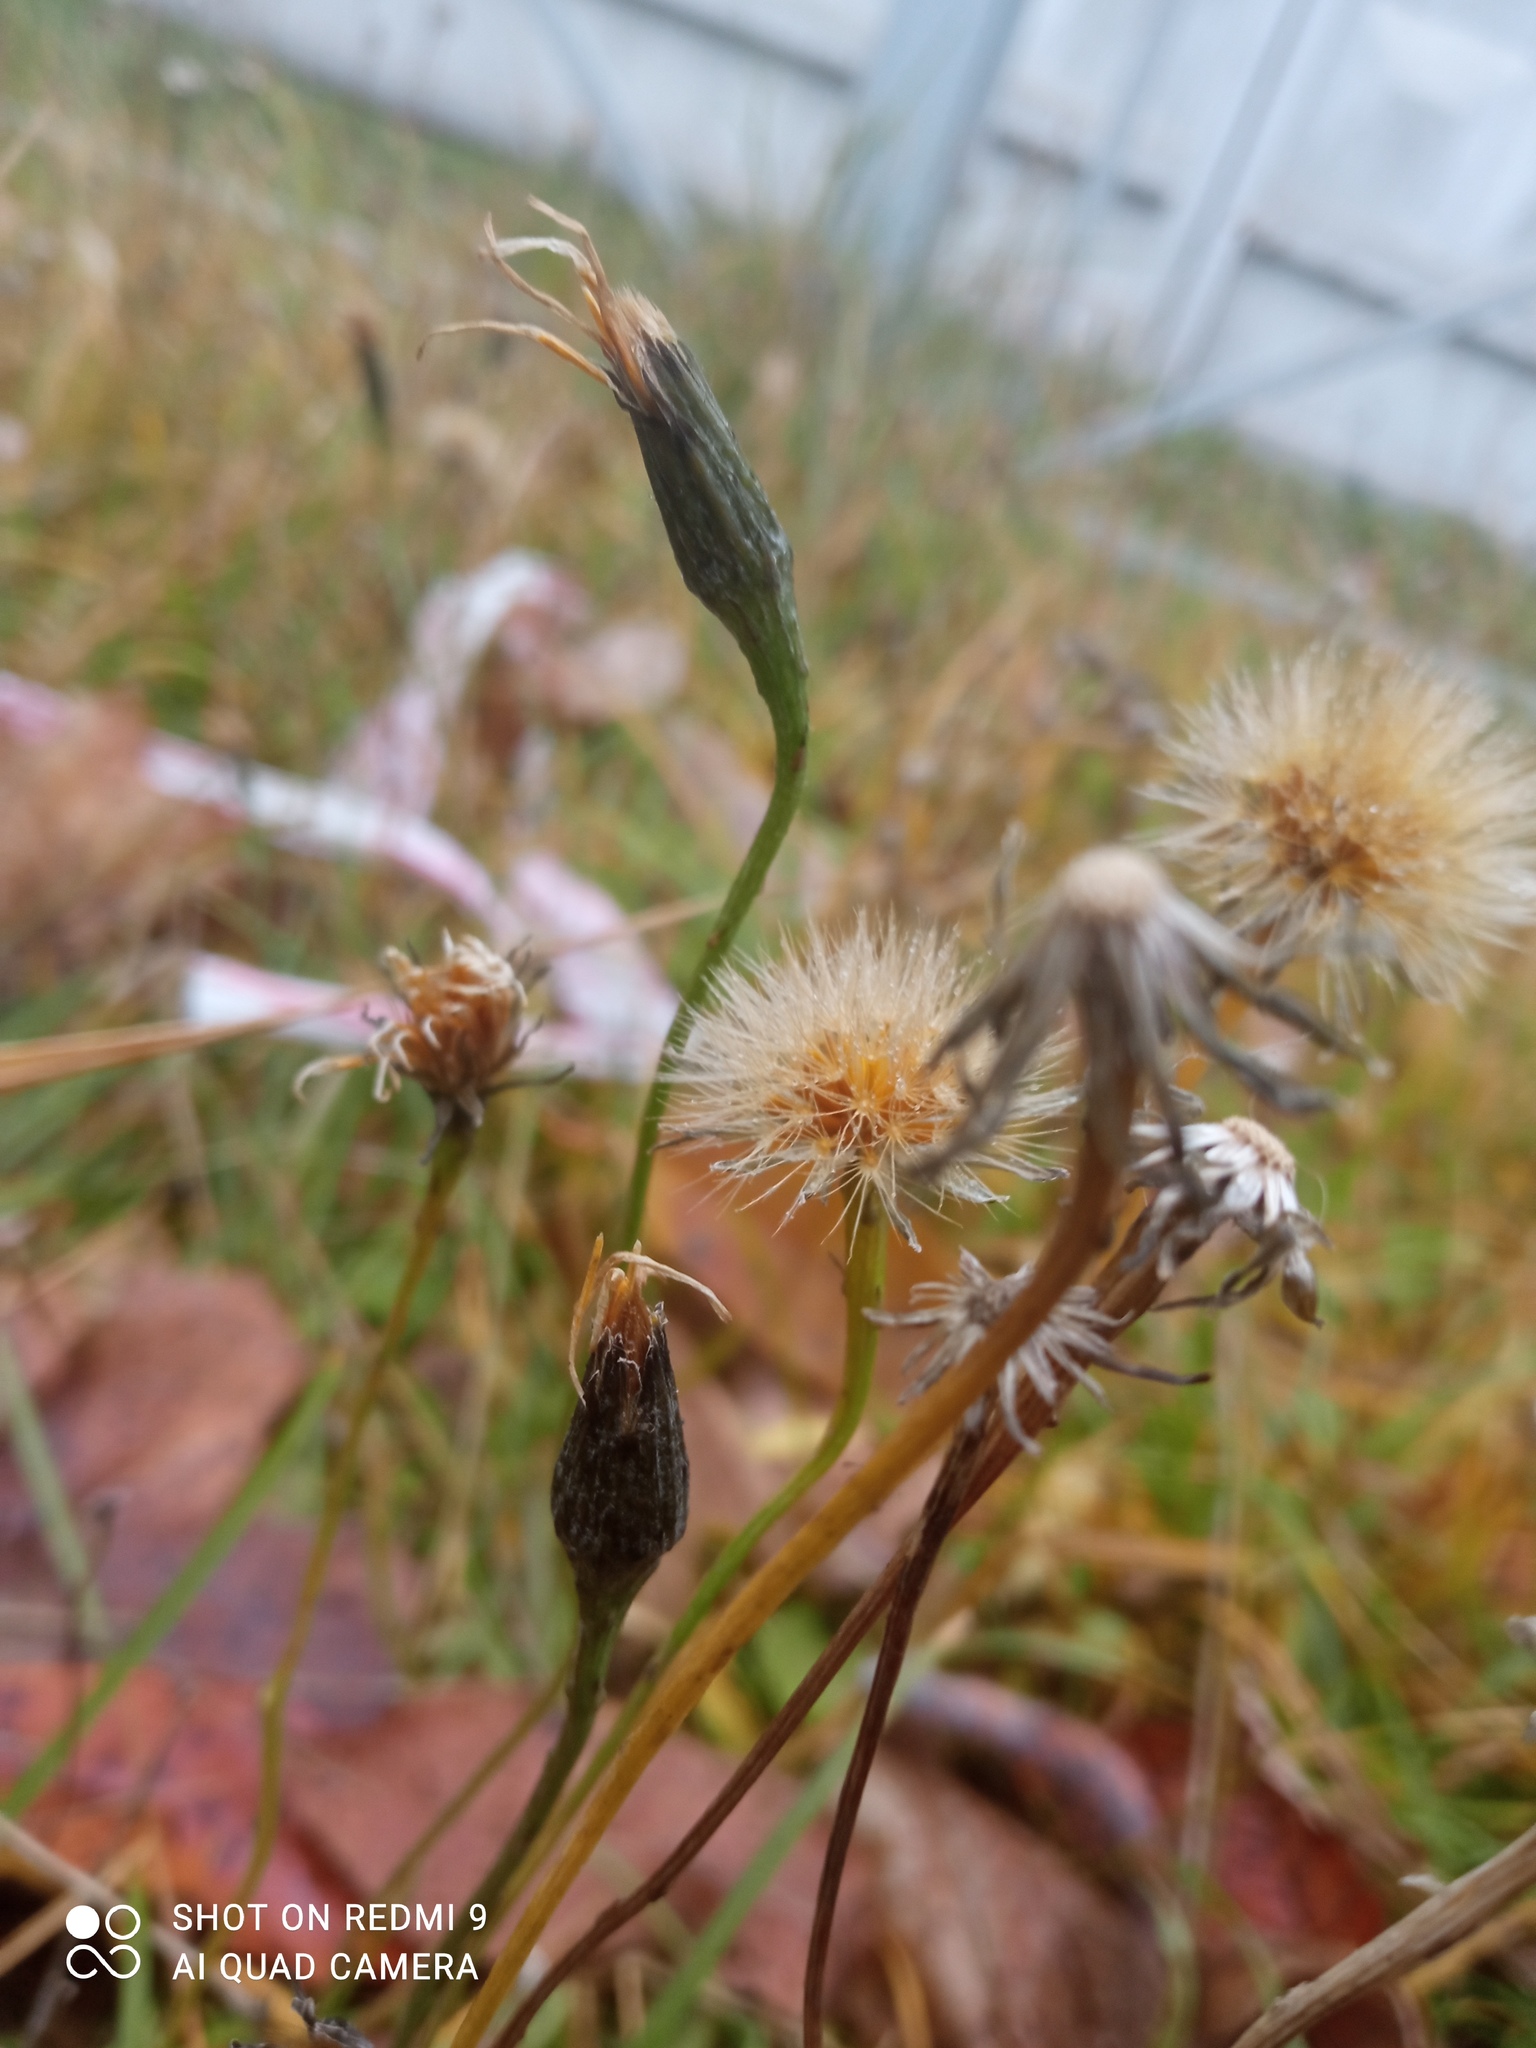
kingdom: Plantae
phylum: Tracheophyta
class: Magnoliopsida
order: Asterales
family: Asteraceae
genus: Scorzoneroides
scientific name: Scorzoneroides autumnalis
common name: Autumn hawkbit
